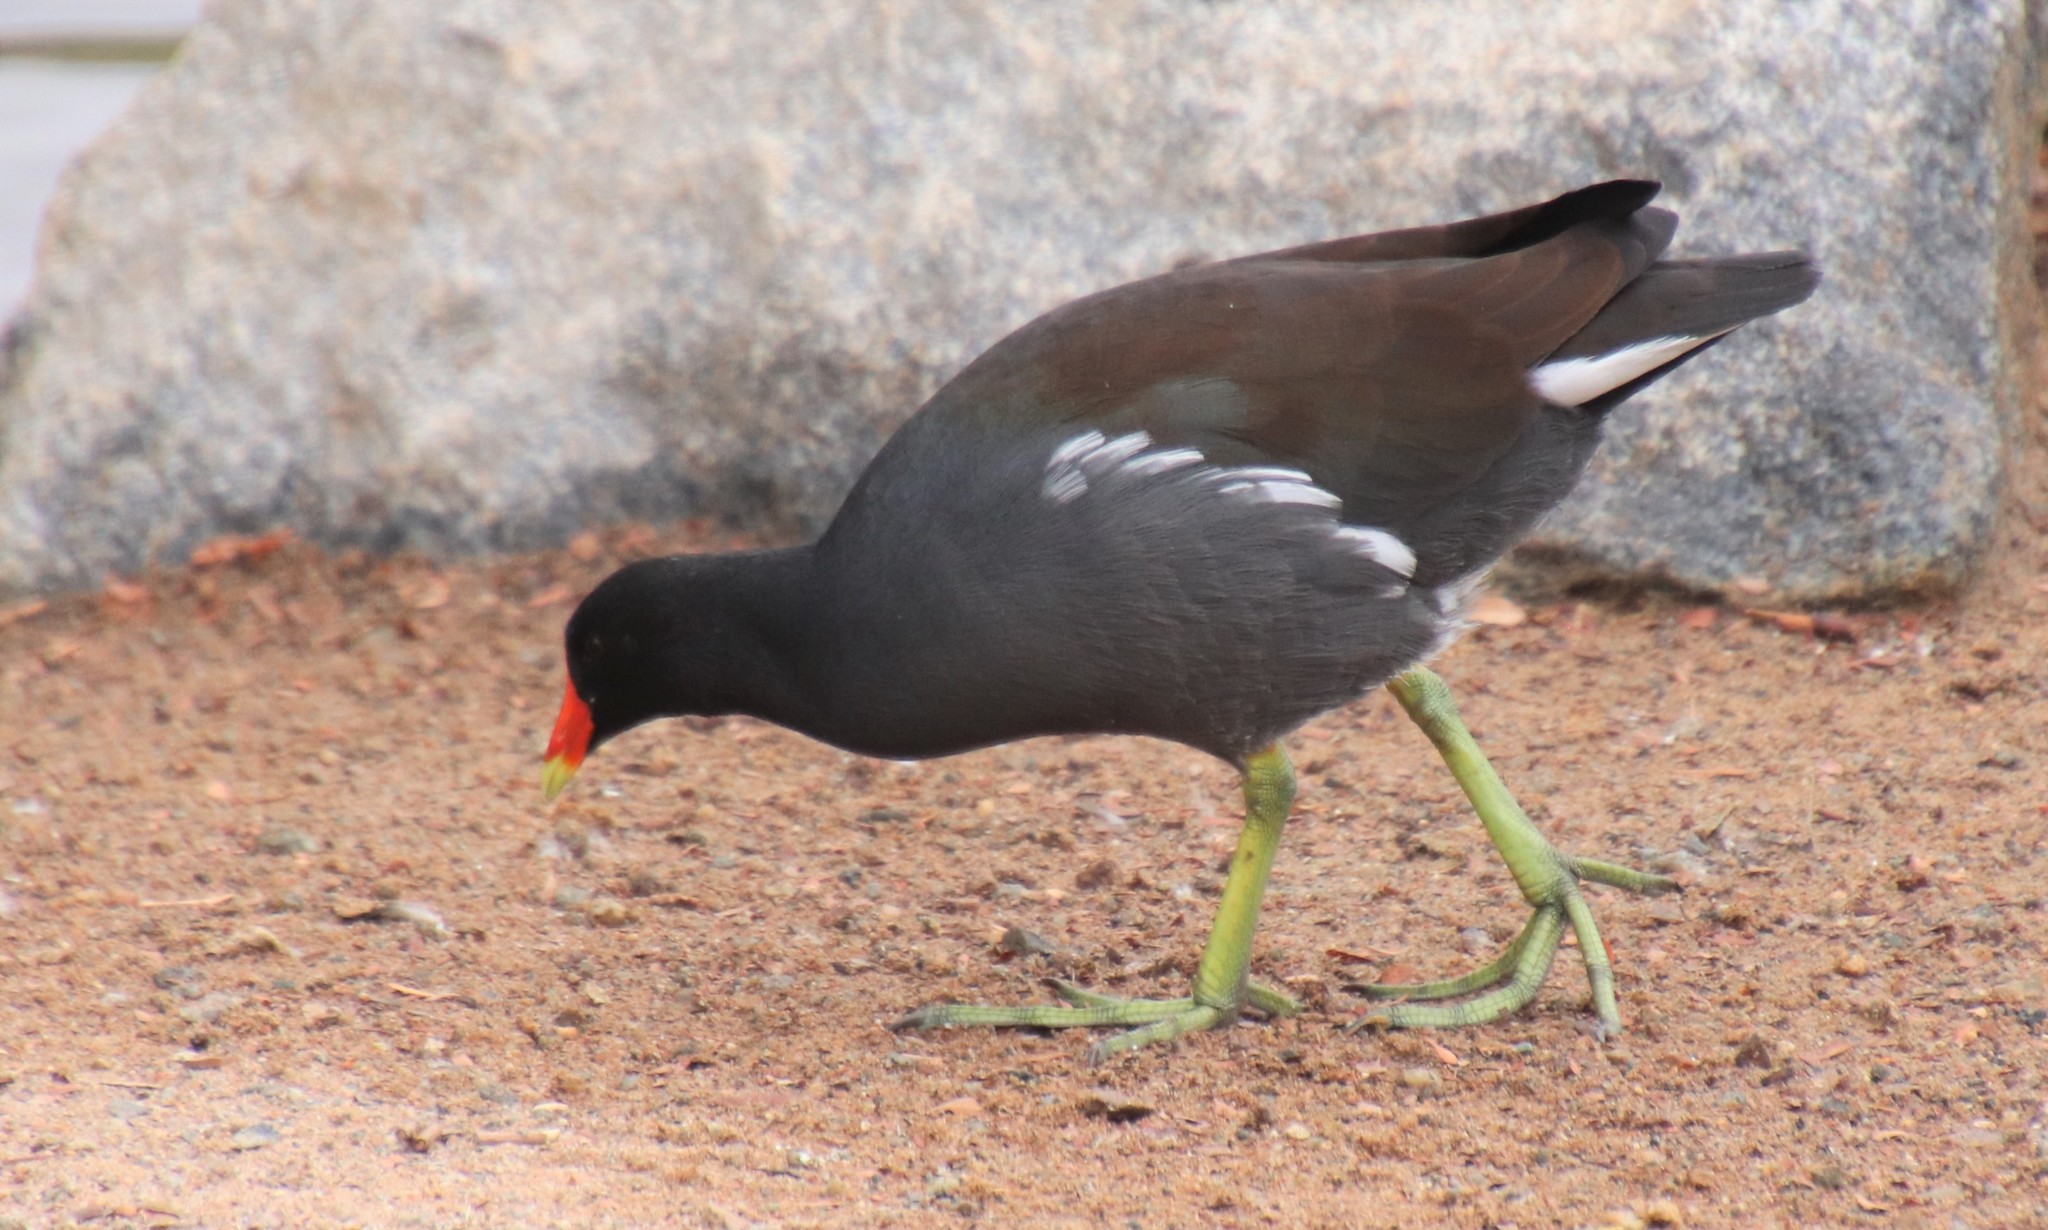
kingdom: Animalia
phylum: Chordata
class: Aves
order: Gruiformes
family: Rallidae
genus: Gallinula
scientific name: Gallinula chloropus
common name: Common moorhen
